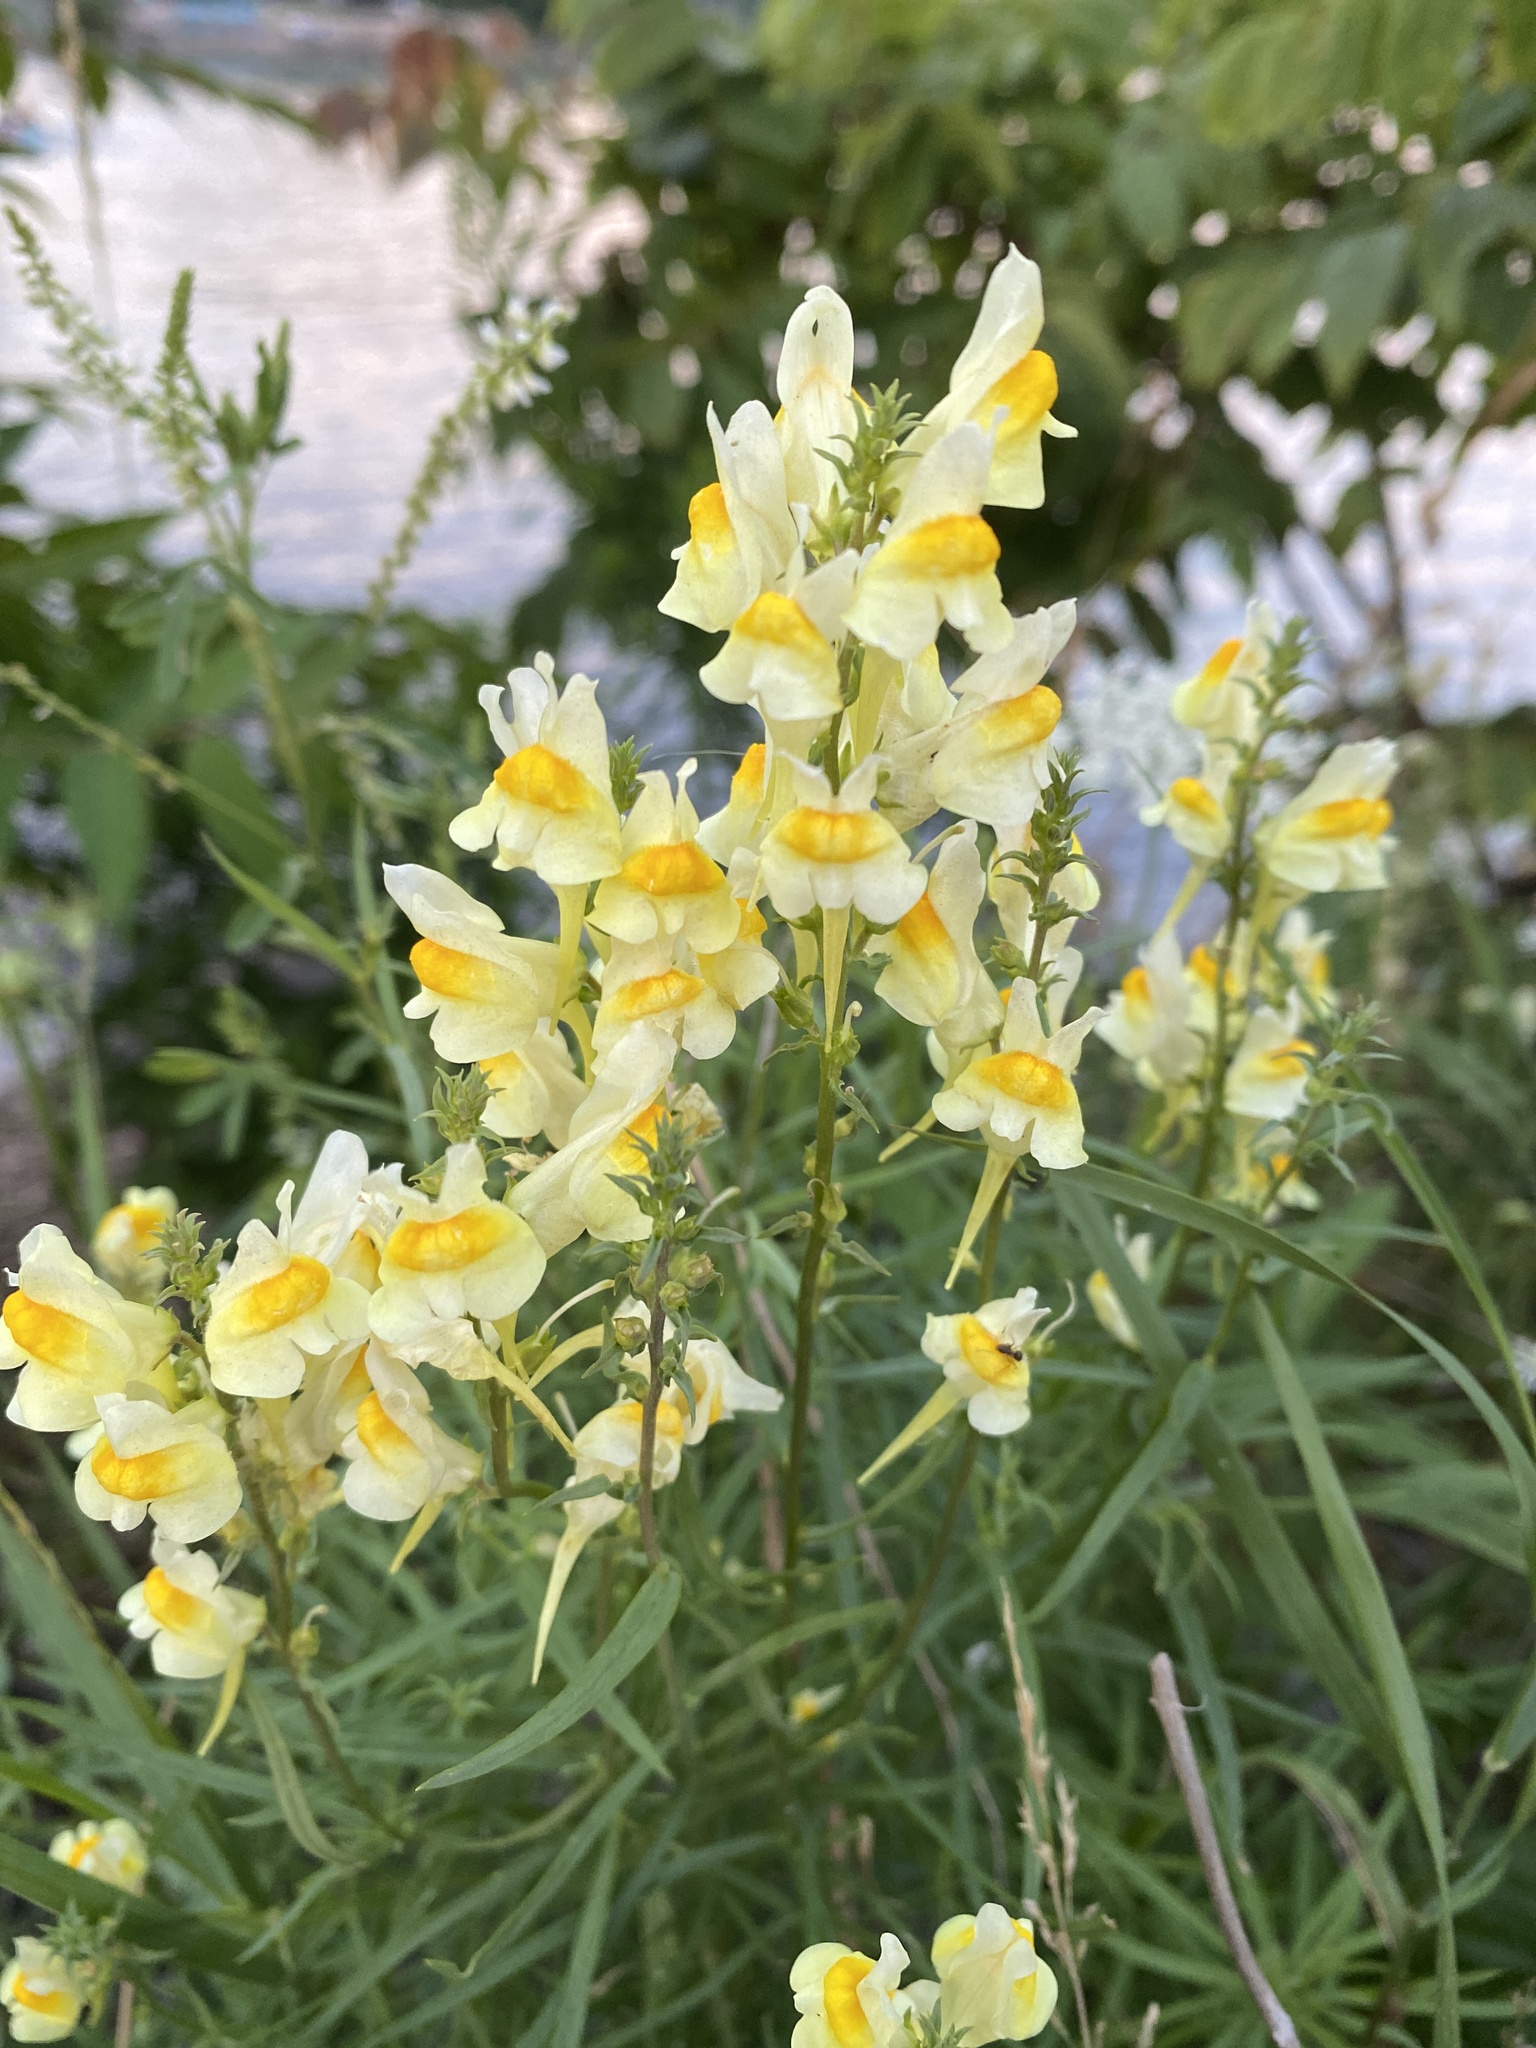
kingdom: Plantae
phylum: Tracheophyta
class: Magnoliopsida
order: Lamiales
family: Plantaginaceae
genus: Linaria
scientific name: Linaria vulgaris
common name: Butter and eggs
